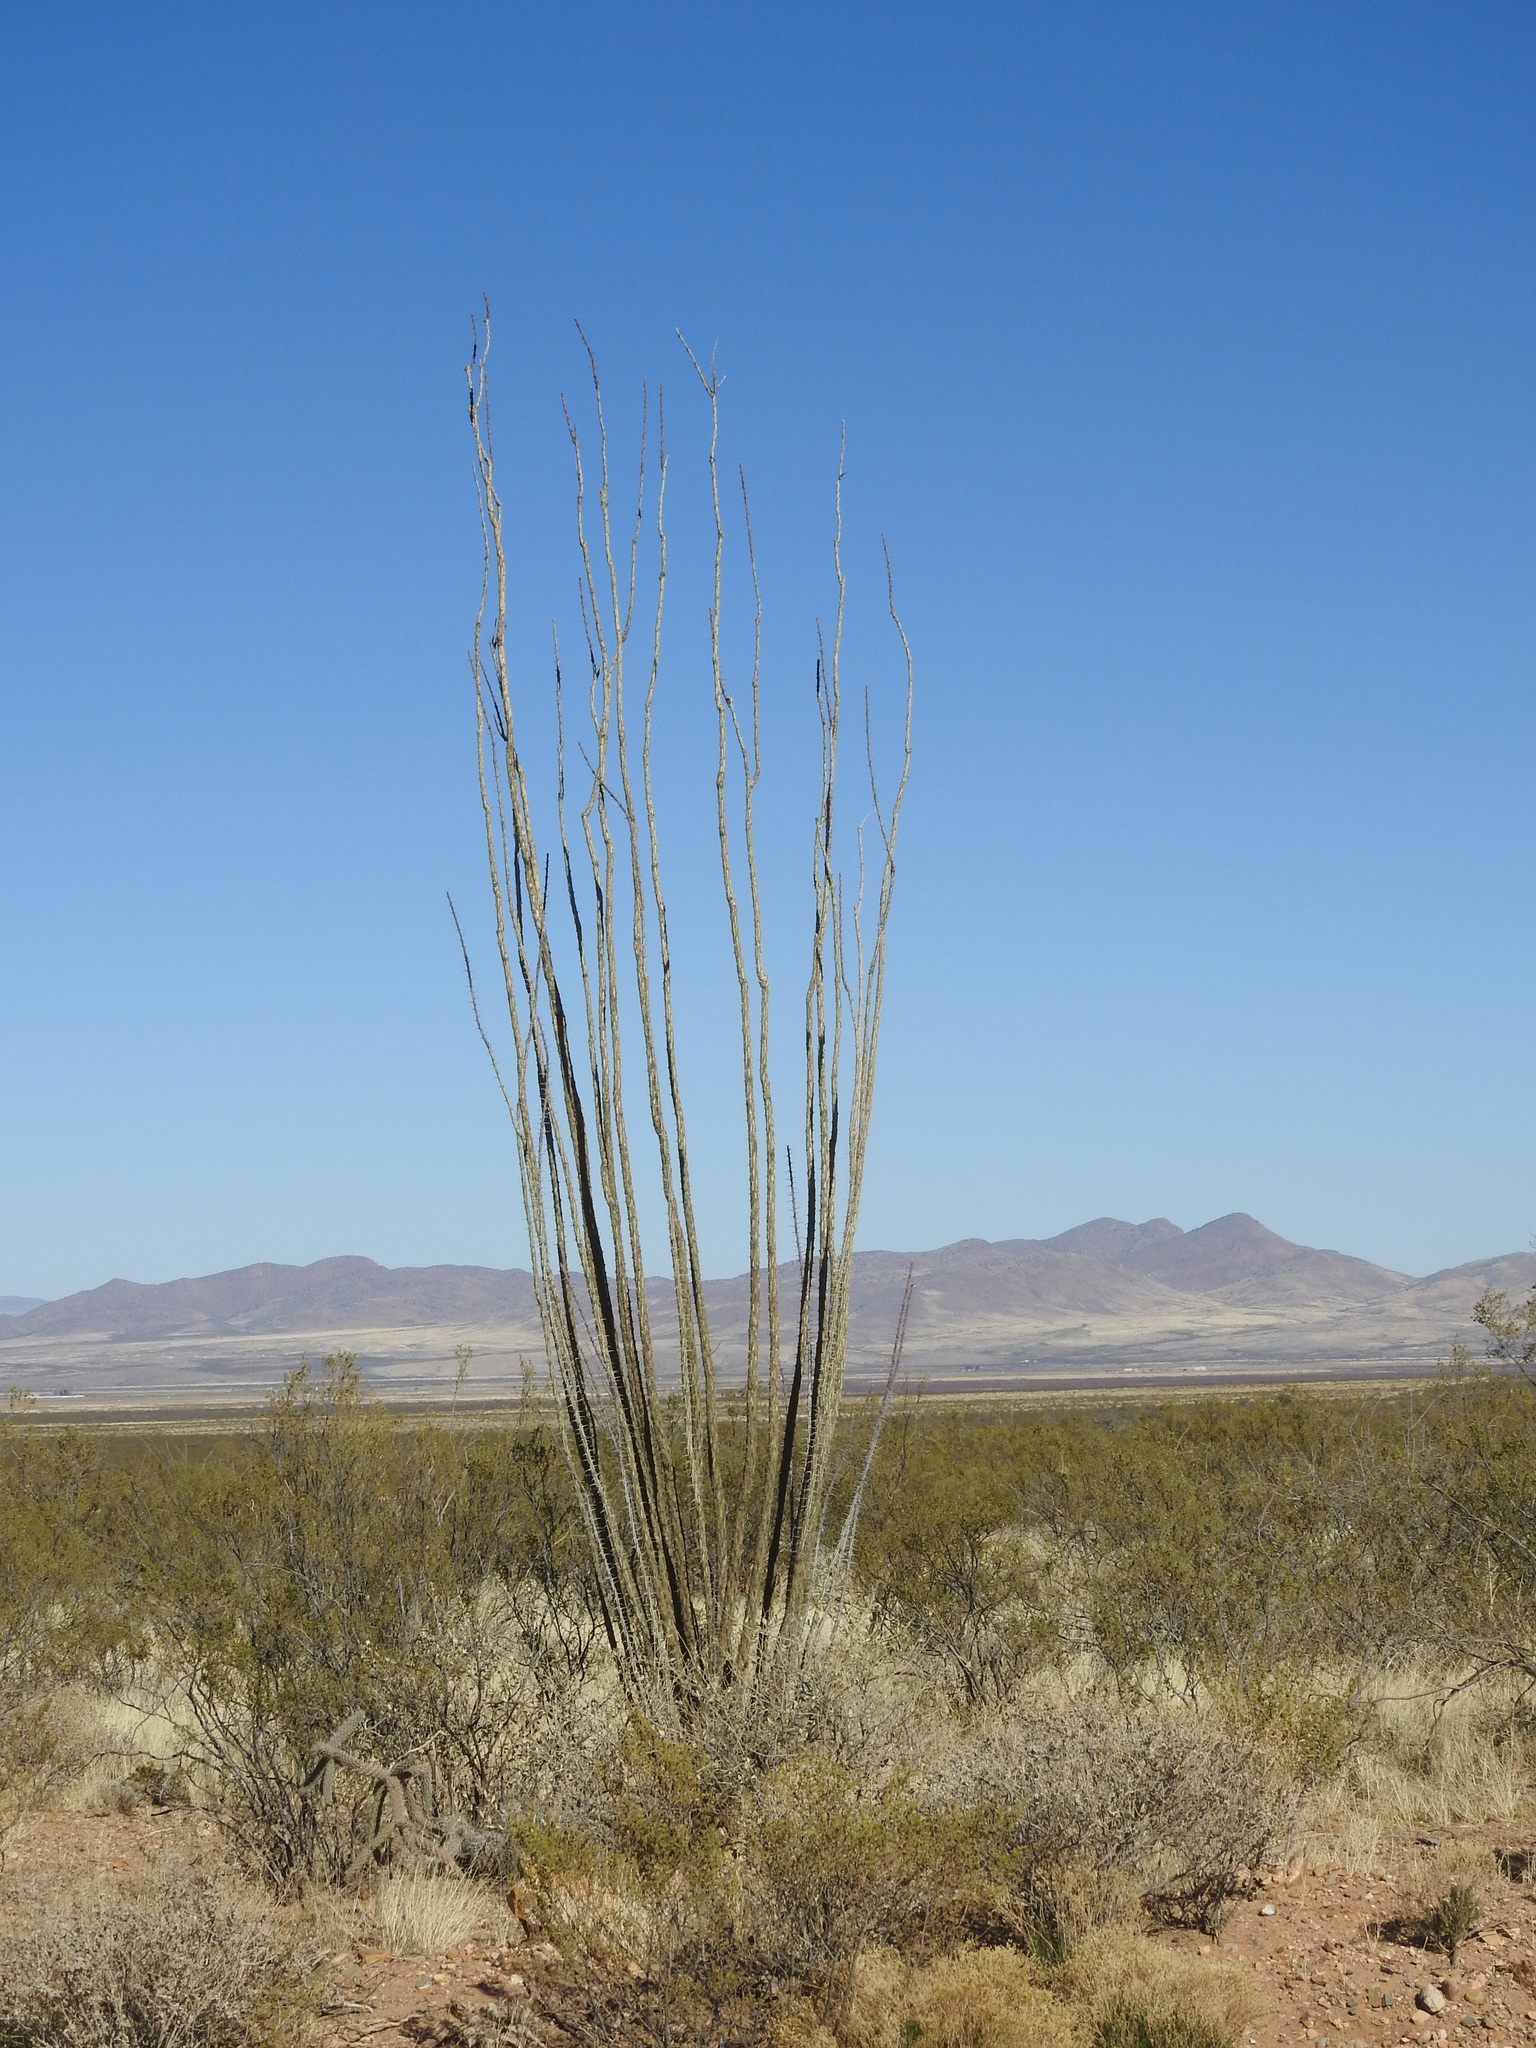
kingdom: Plantae
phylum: Tracheophyta
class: Magnoliopsida
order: Ericales
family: Fouquieriaceae
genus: Fouquieria
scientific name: Fouquieria splendens
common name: Vine-cactus
